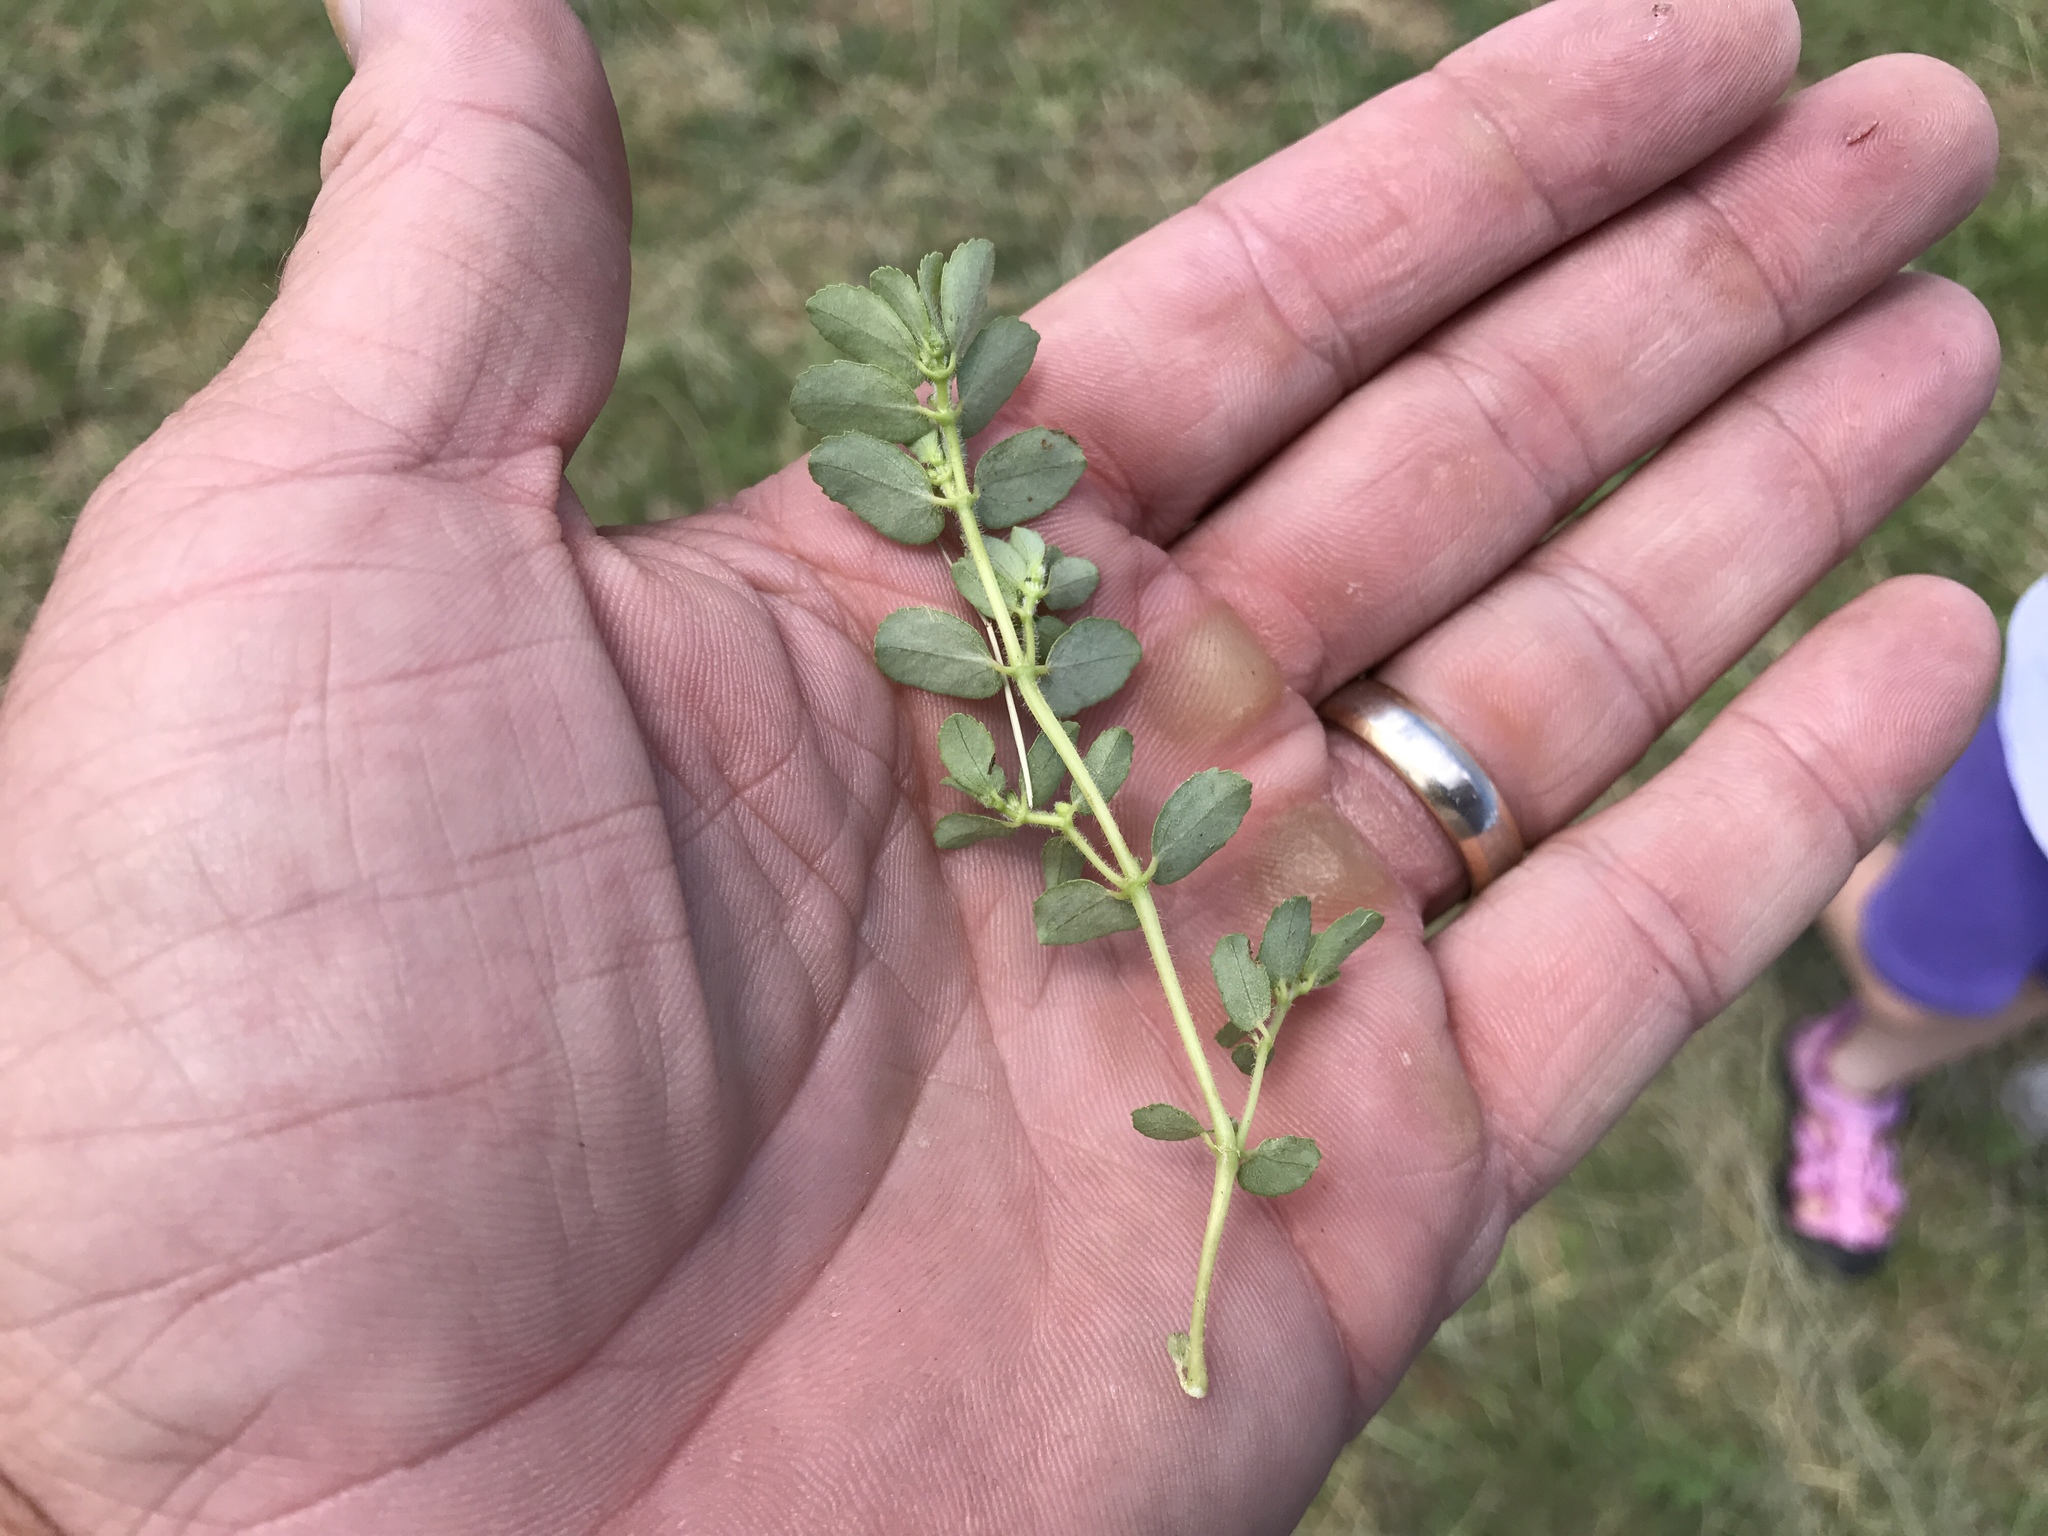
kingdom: Plantae
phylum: Tracheophyta
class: Magnoliopsida
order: Malpighiales
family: Euphorbiaceae
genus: Euphorbia
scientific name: Euphorbia stictospora
